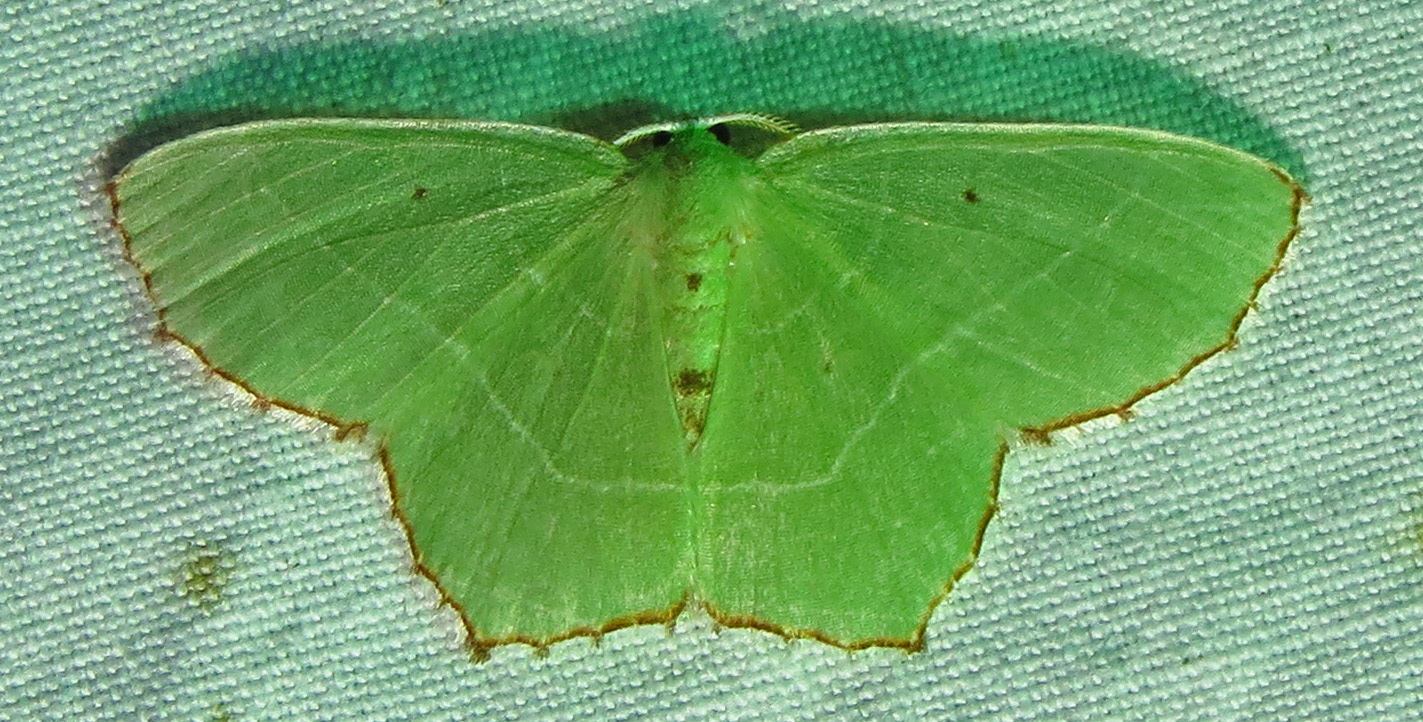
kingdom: Animalia
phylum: Arthropoda
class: Insecta
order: Lepidoptera
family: Geometridae
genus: Nemoria
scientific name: Nemoria saturiba
